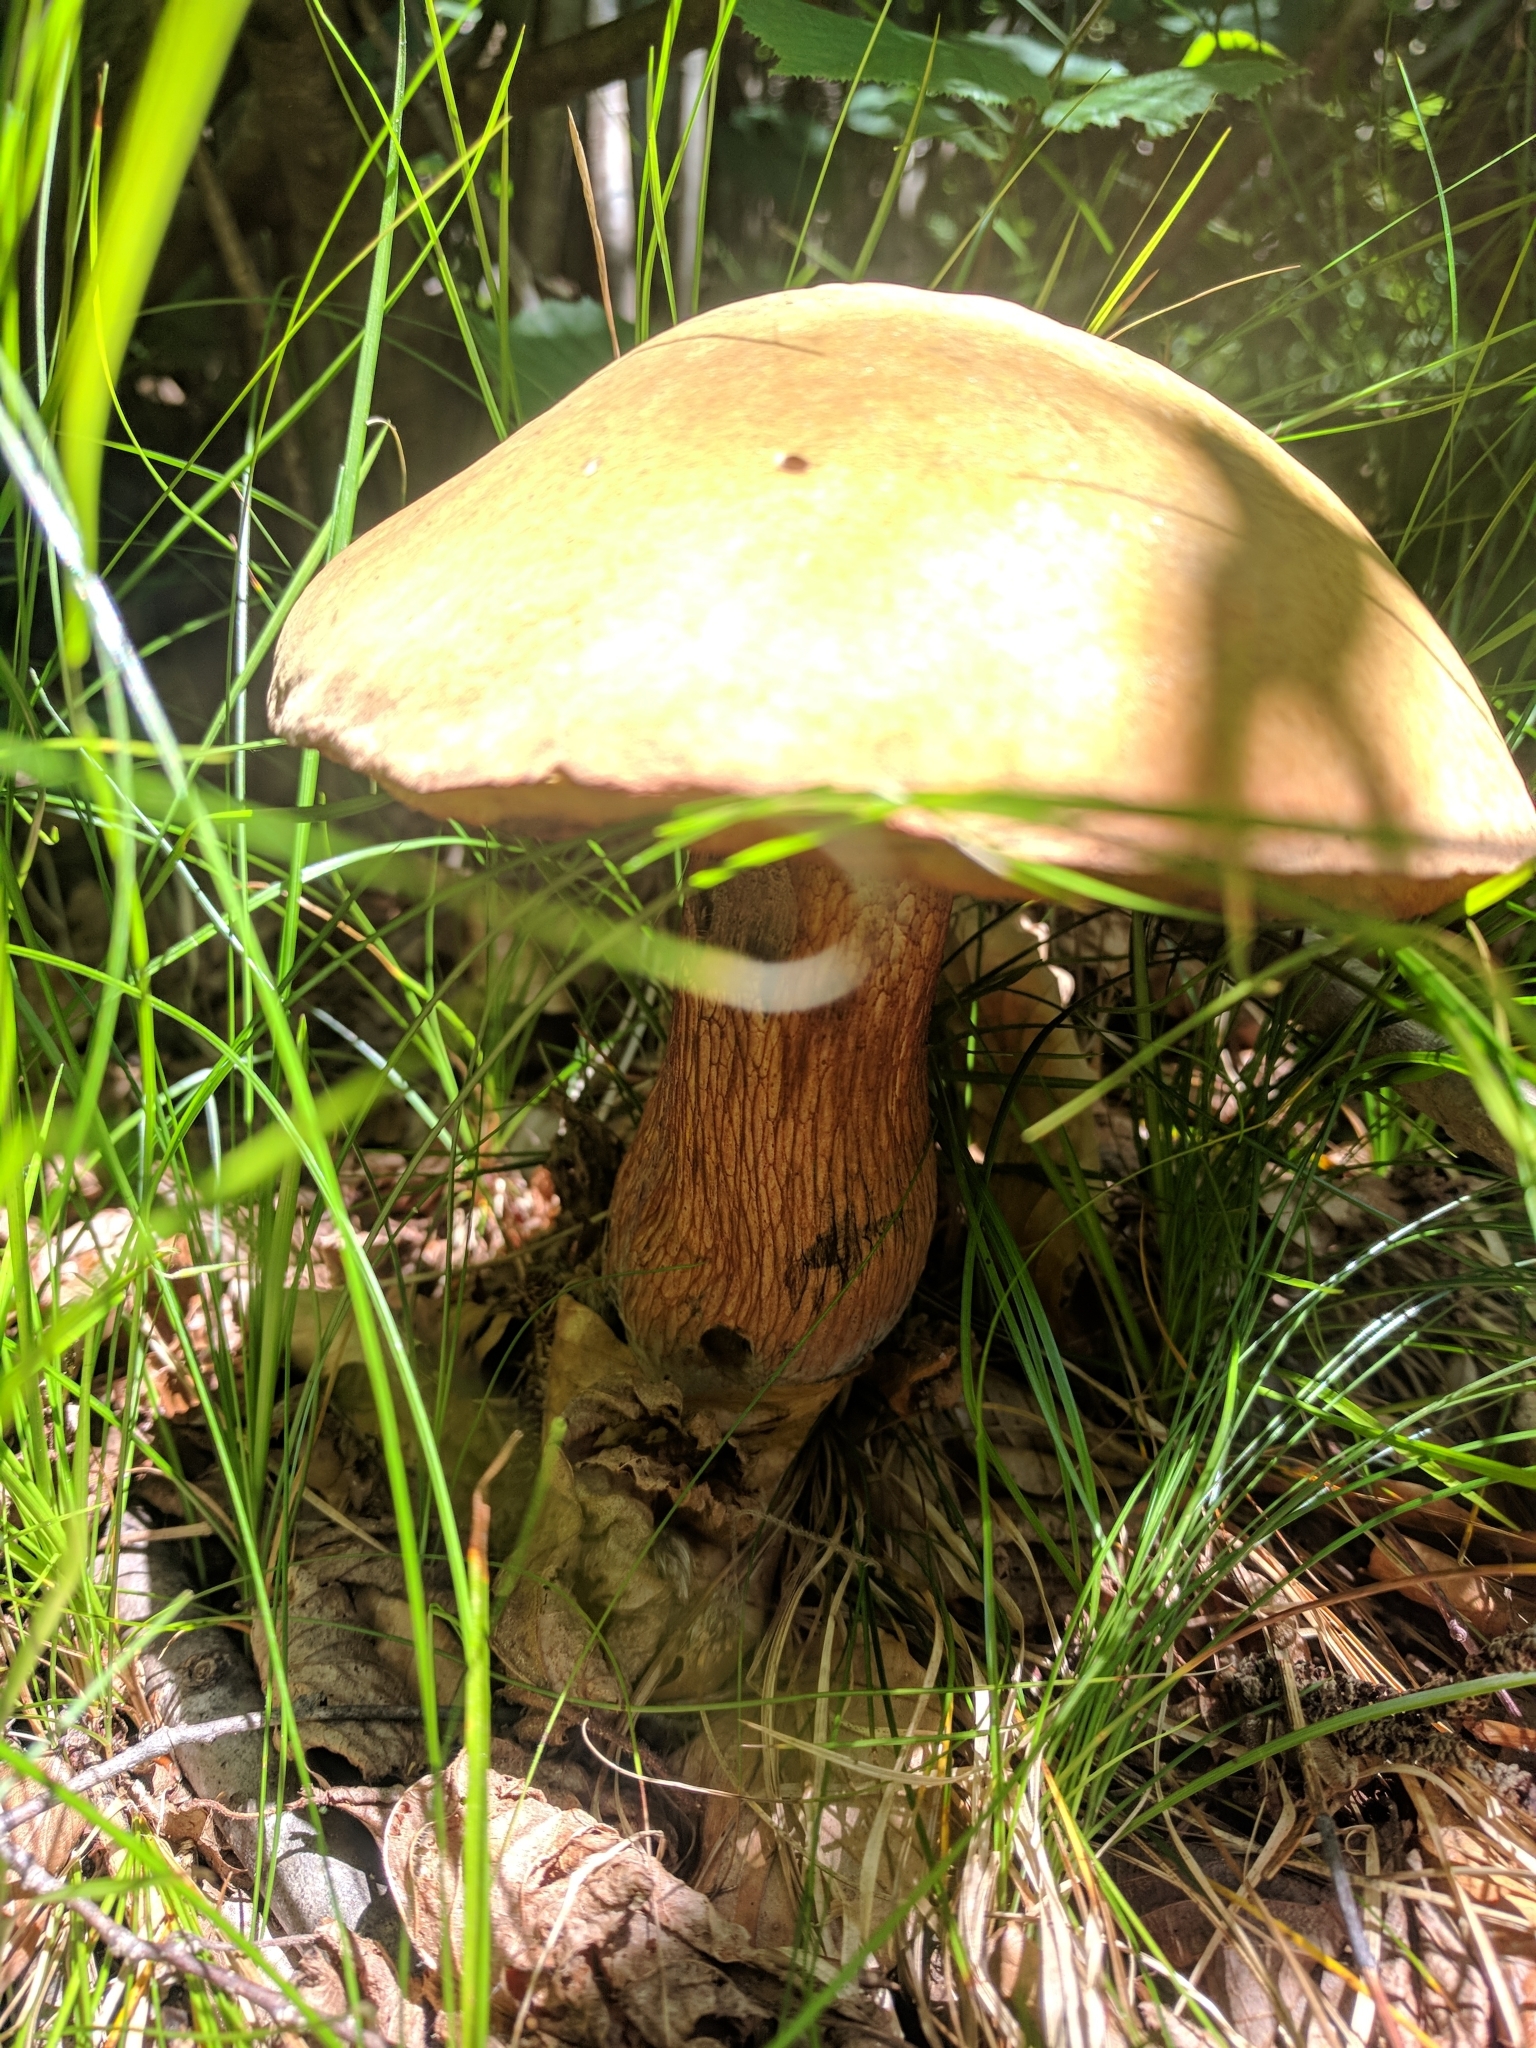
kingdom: Fungi
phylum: Basidiomycota
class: Agaricomycetes
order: Boletales
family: Boletaceae
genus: Suillellus
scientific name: Suillellus luridus
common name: Lurid bolete
